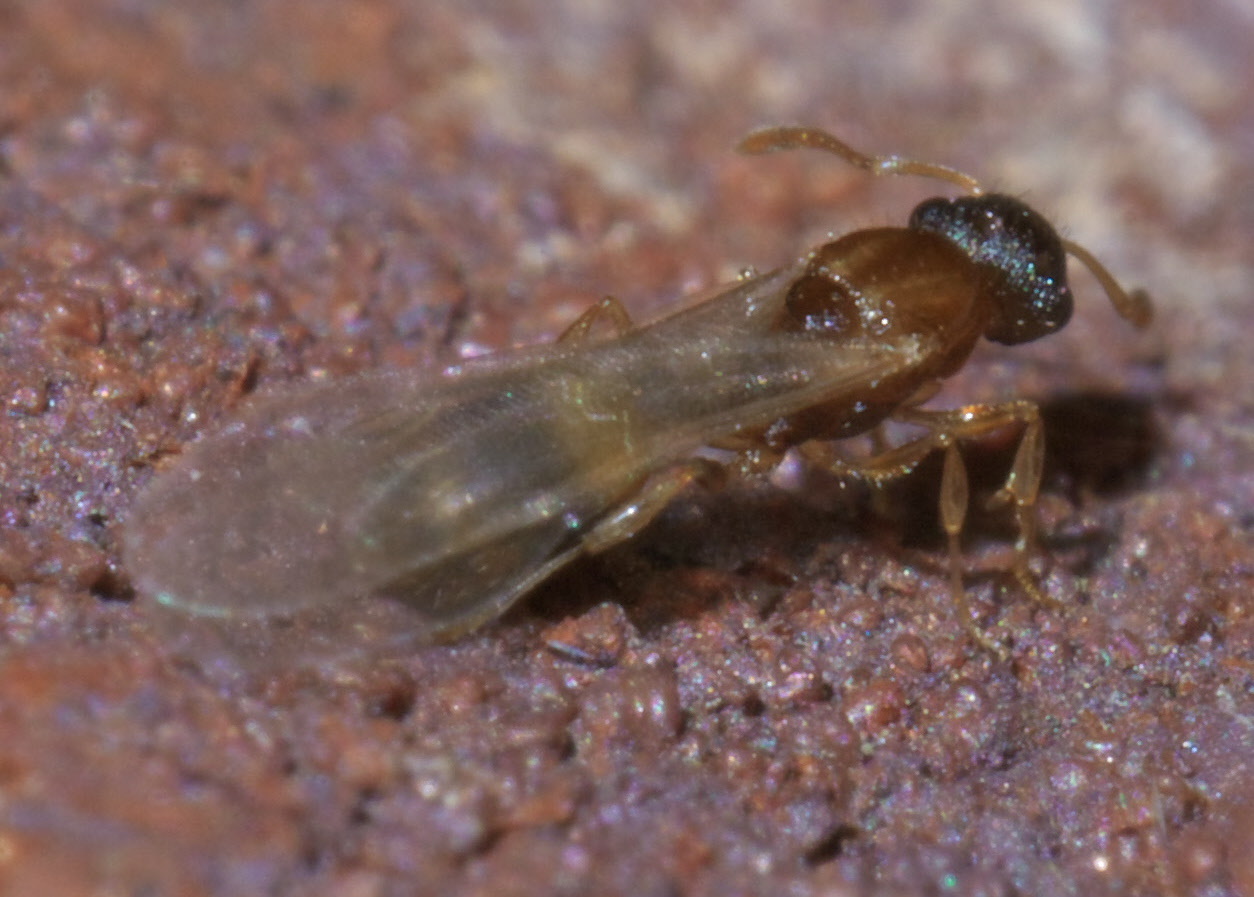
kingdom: Animalia
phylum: Arthropoda
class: Insecta
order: Hymenoptera
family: Formicidae
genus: Temnothorax
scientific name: Temnothorax curvispinosus
